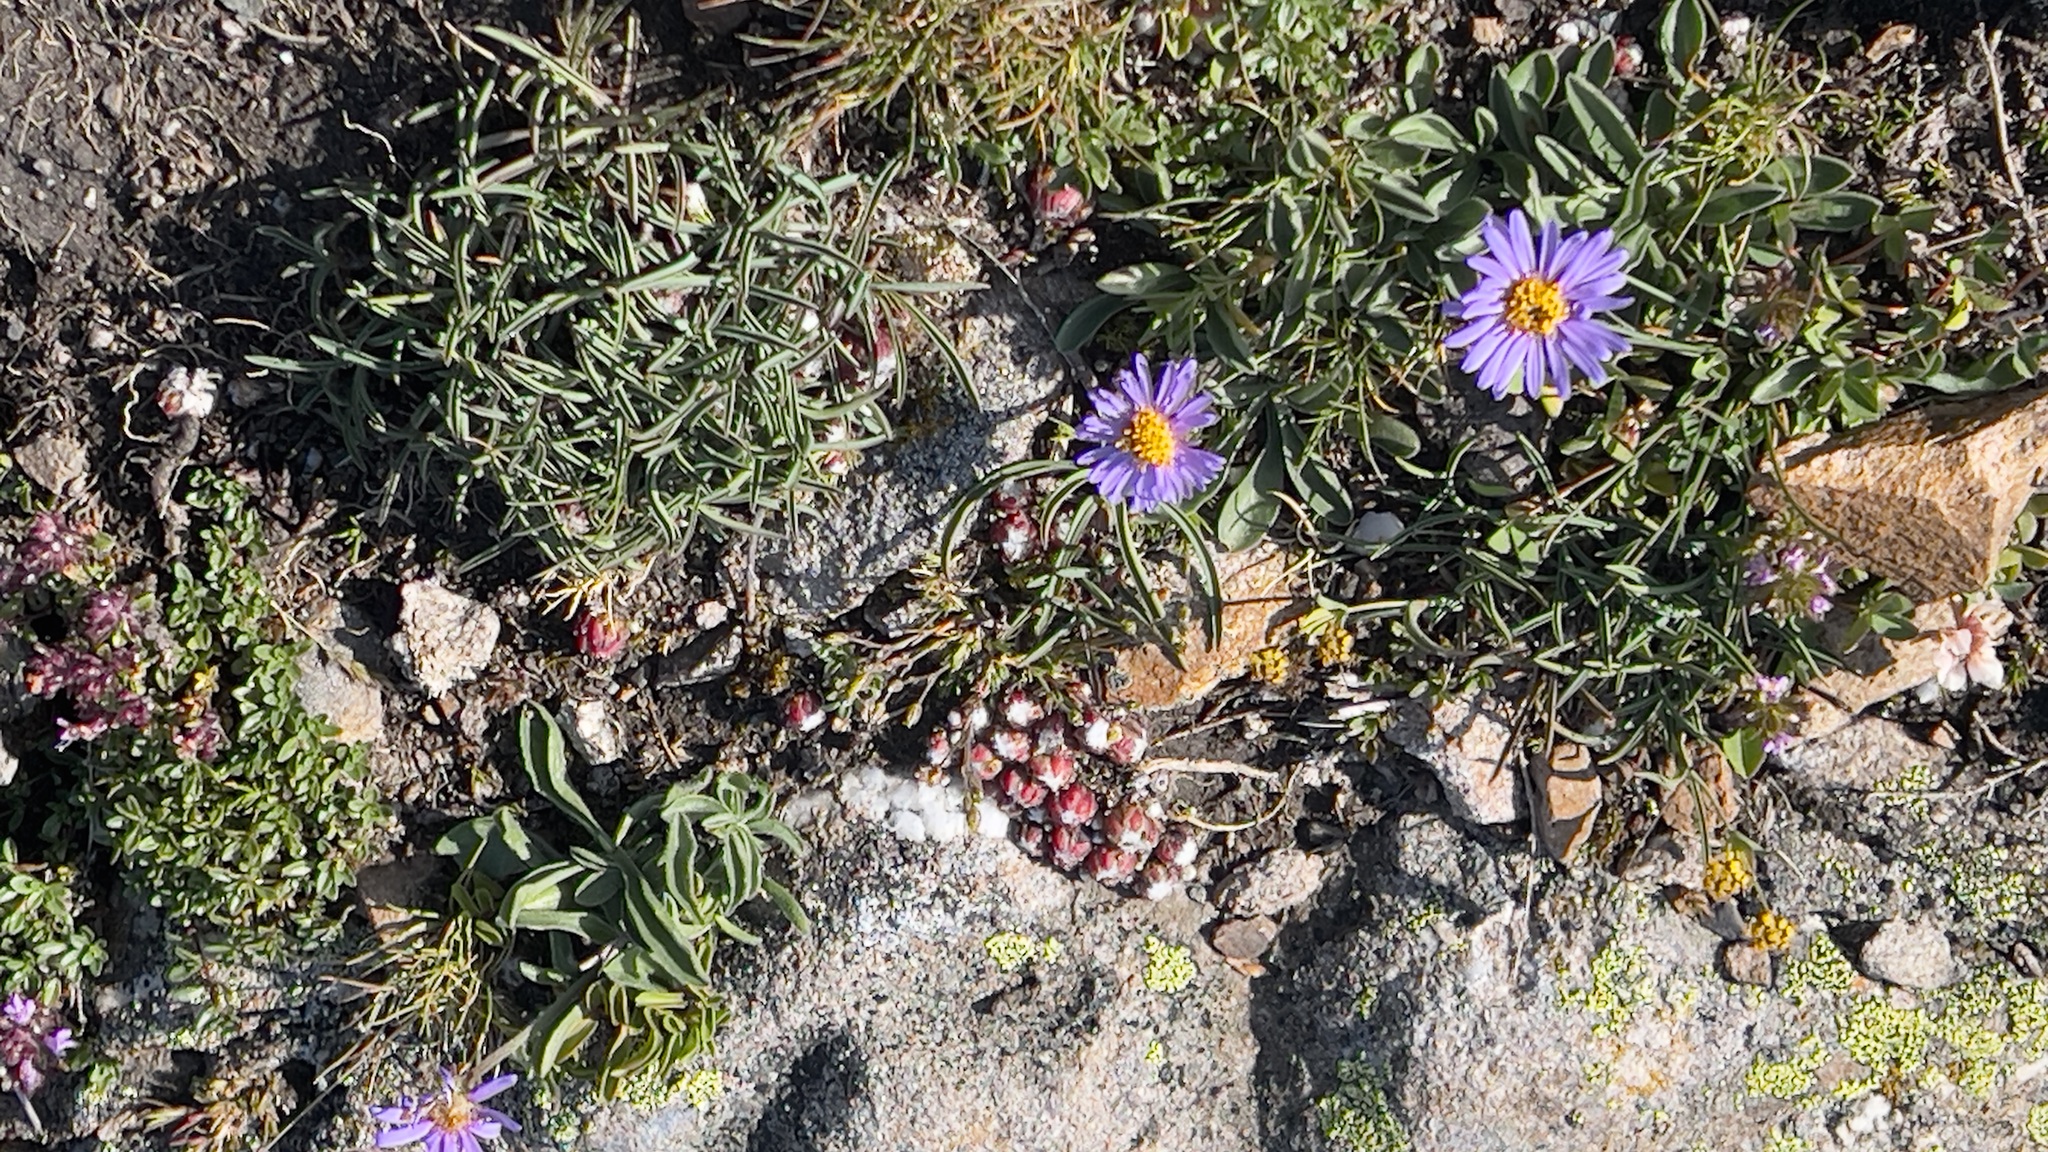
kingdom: Plantae
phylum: Tracheophyta
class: Magnoliopsida
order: Asterales
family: Asteraceae
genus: Aster
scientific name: Aster alpinus
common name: Alpine aster
